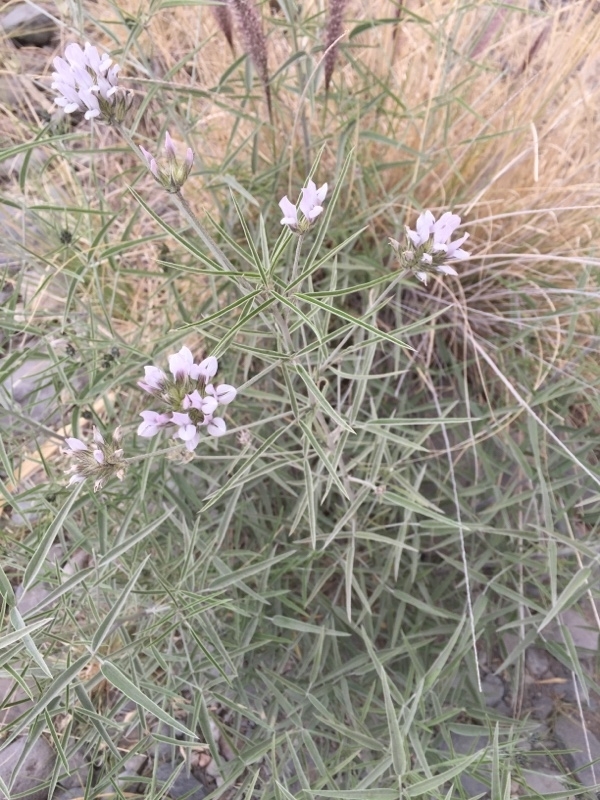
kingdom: Plantae
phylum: Tracheophyta
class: Magnoliopsida
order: Fabales
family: Fabaceae
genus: Bituminaria
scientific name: Bituminaria bituminosa
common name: Arabian pea
